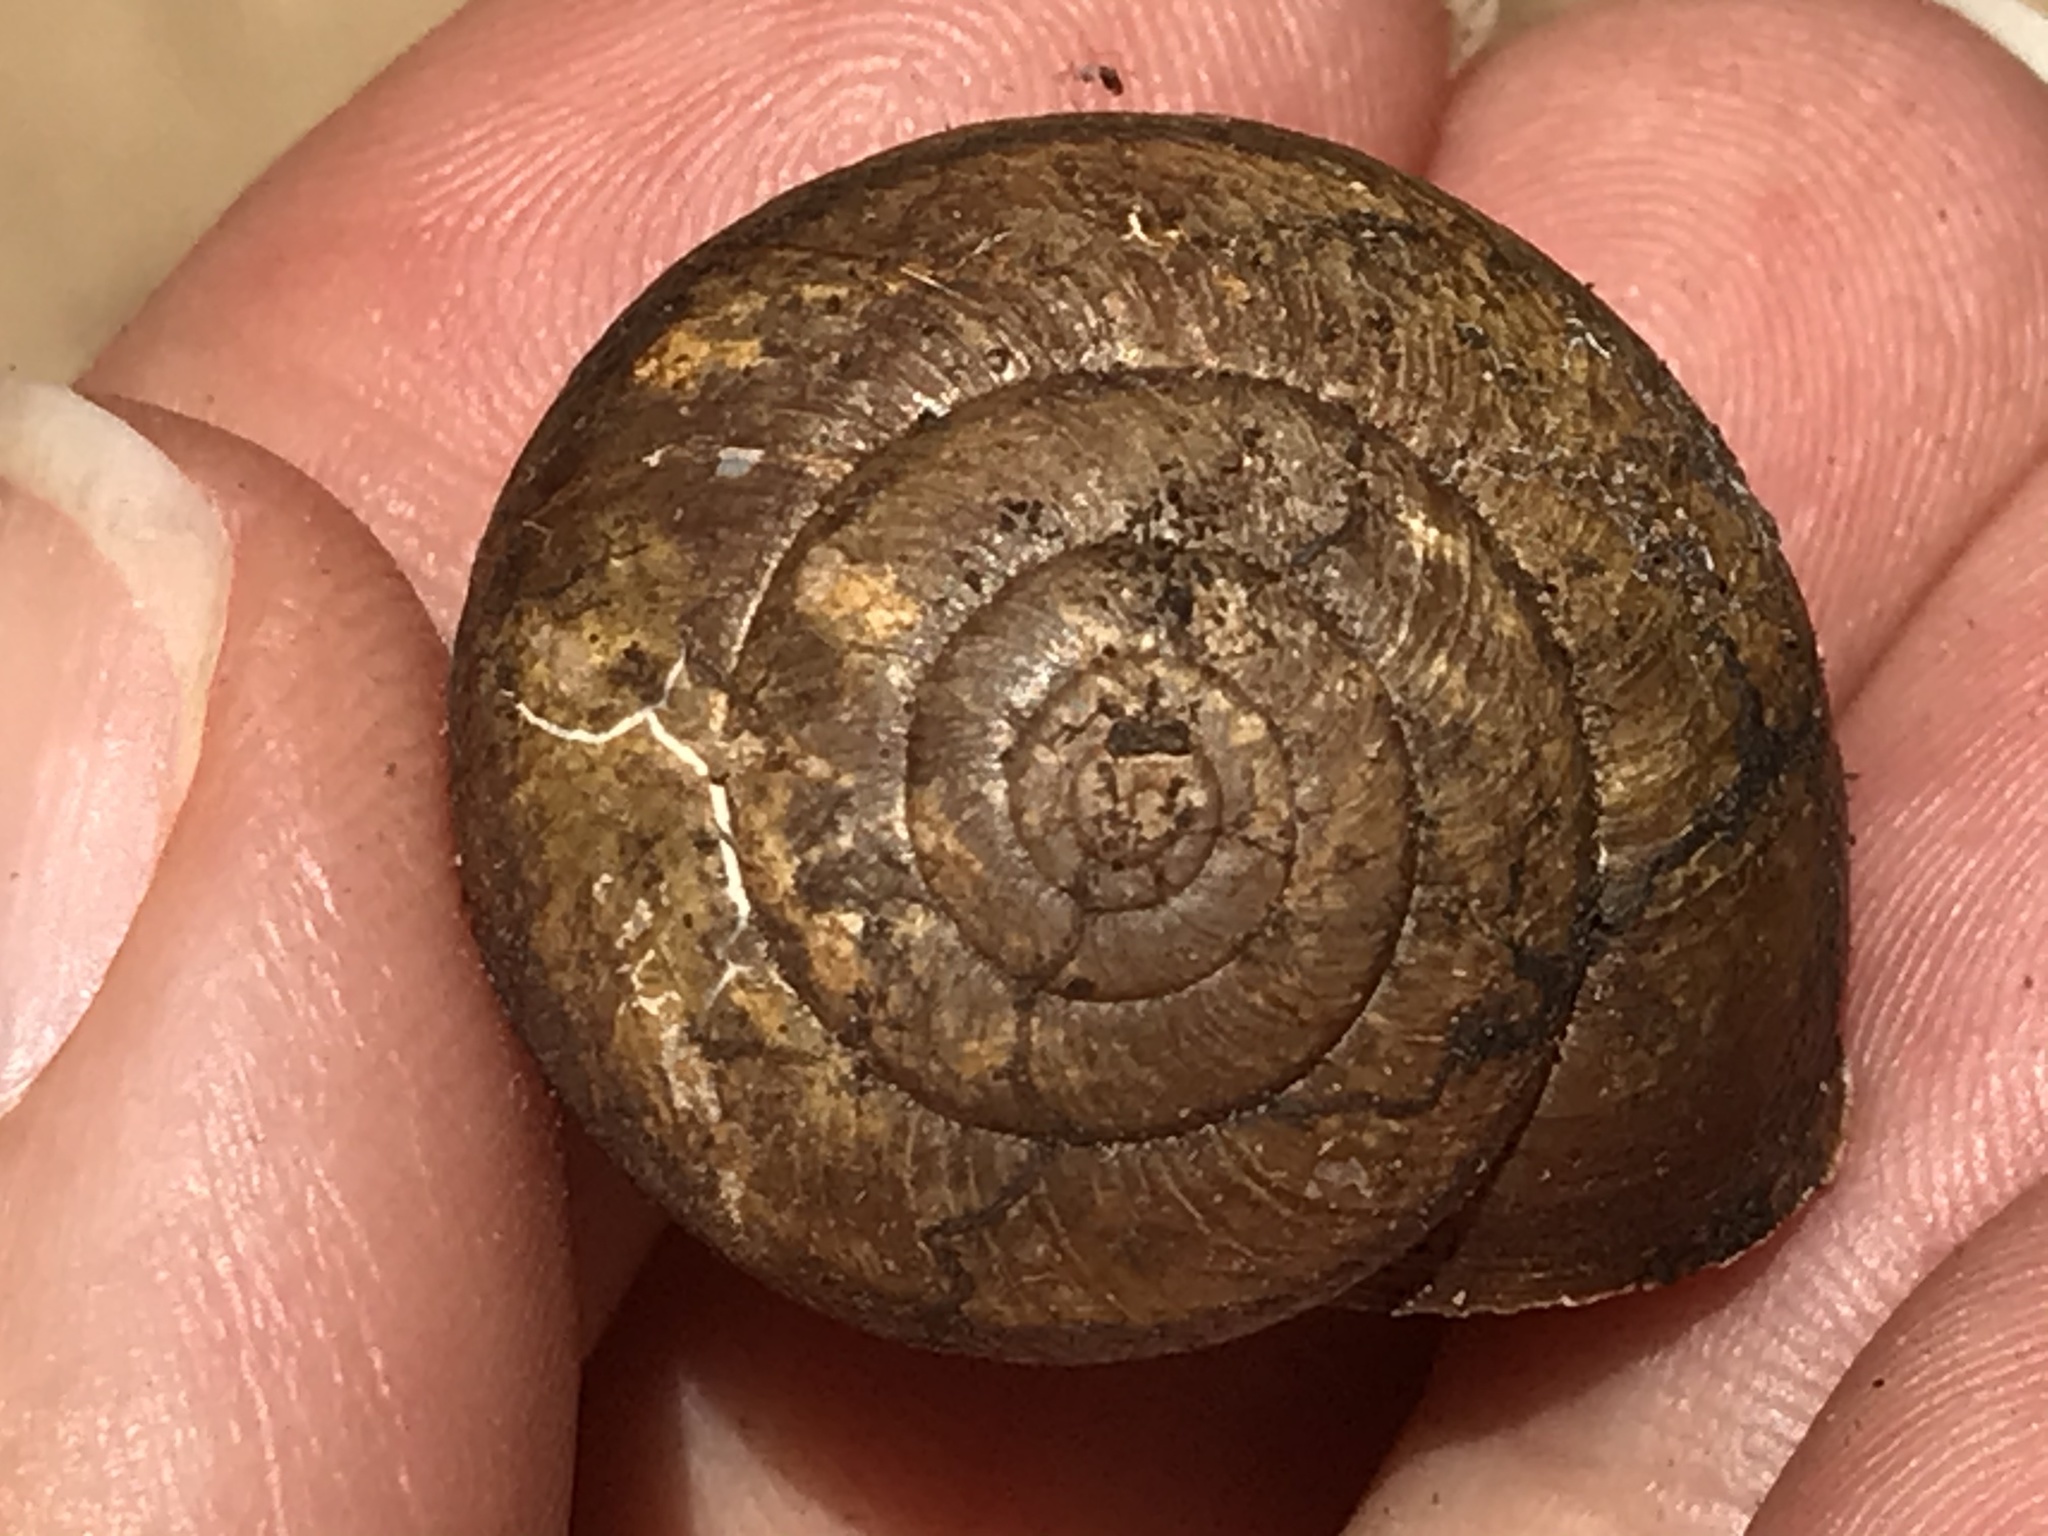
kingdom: Animalia
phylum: Mollusca
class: Gastropoda
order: Stylommatophora
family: Xanthonychidae
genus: Helminthoglypta
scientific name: Helminthoglypta tudiculata
